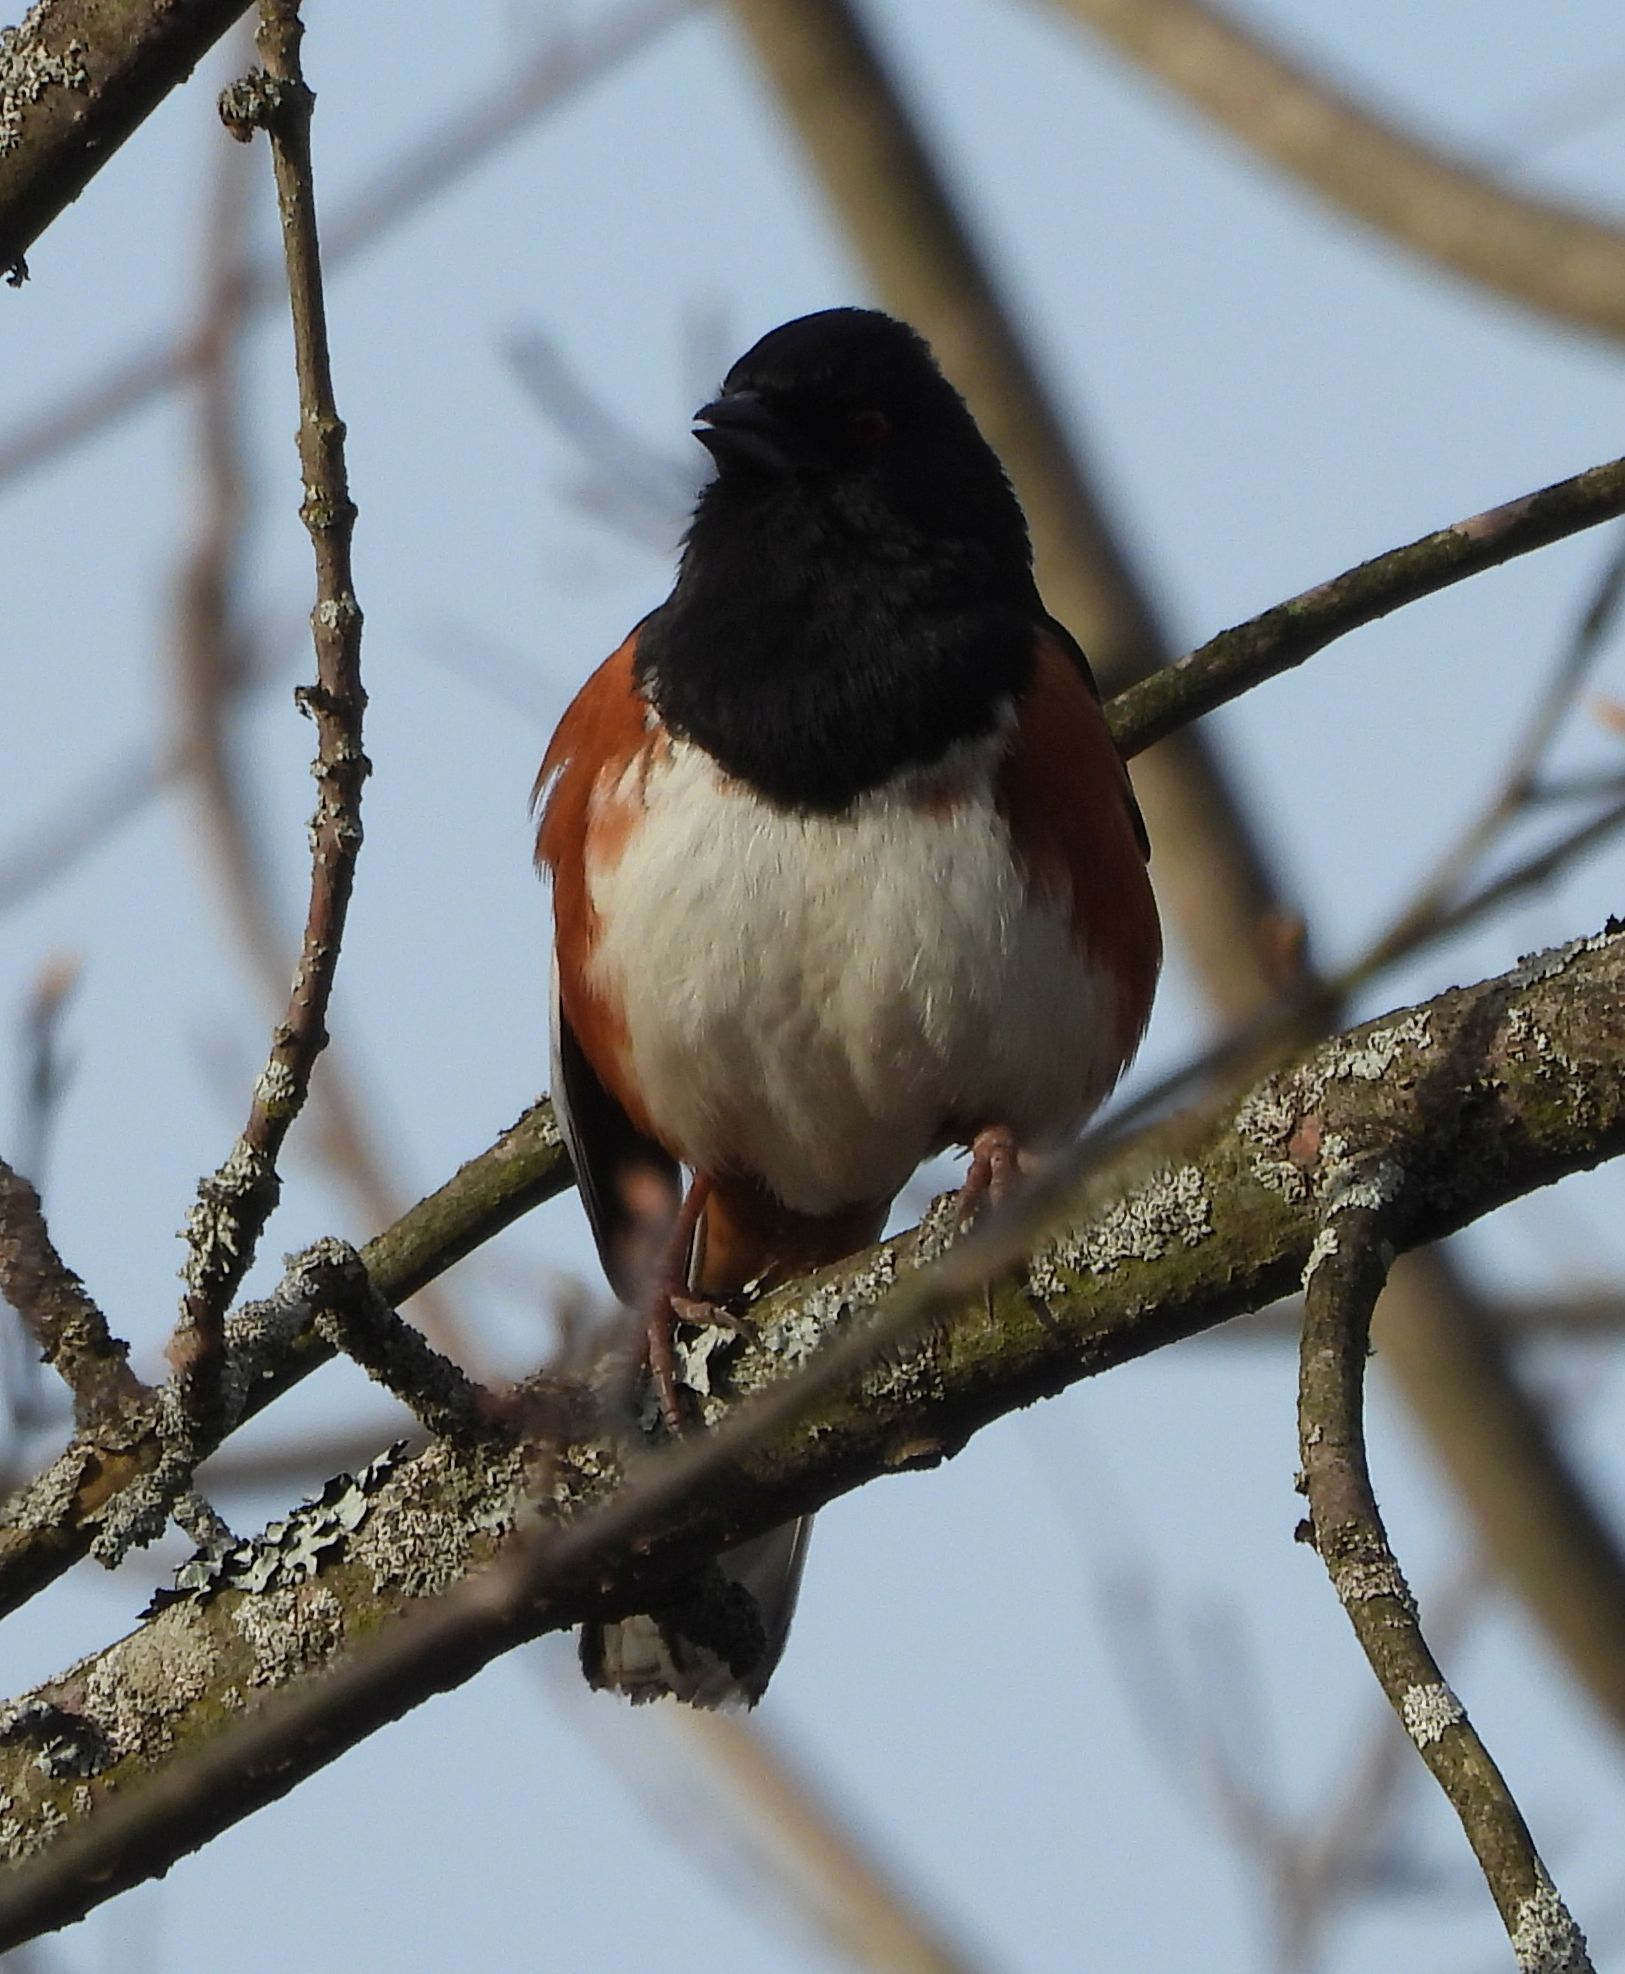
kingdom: Animalia
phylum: Chordata
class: Aves
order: Passeriformes
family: Passerellidae
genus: Pipilo
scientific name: Pipilo erythrophthalmus
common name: Eastern towhee
